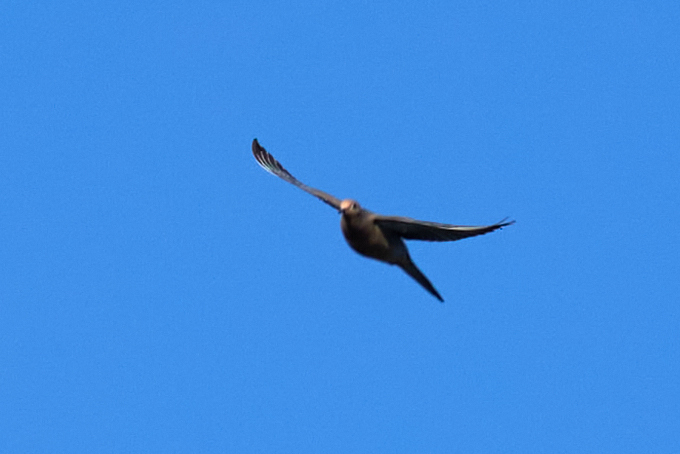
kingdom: Animalia
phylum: Chordata
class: Aves
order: Columbiformes
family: Columbidae
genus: Zenaida
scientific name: Zenaida macroura
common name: Mourning dove
